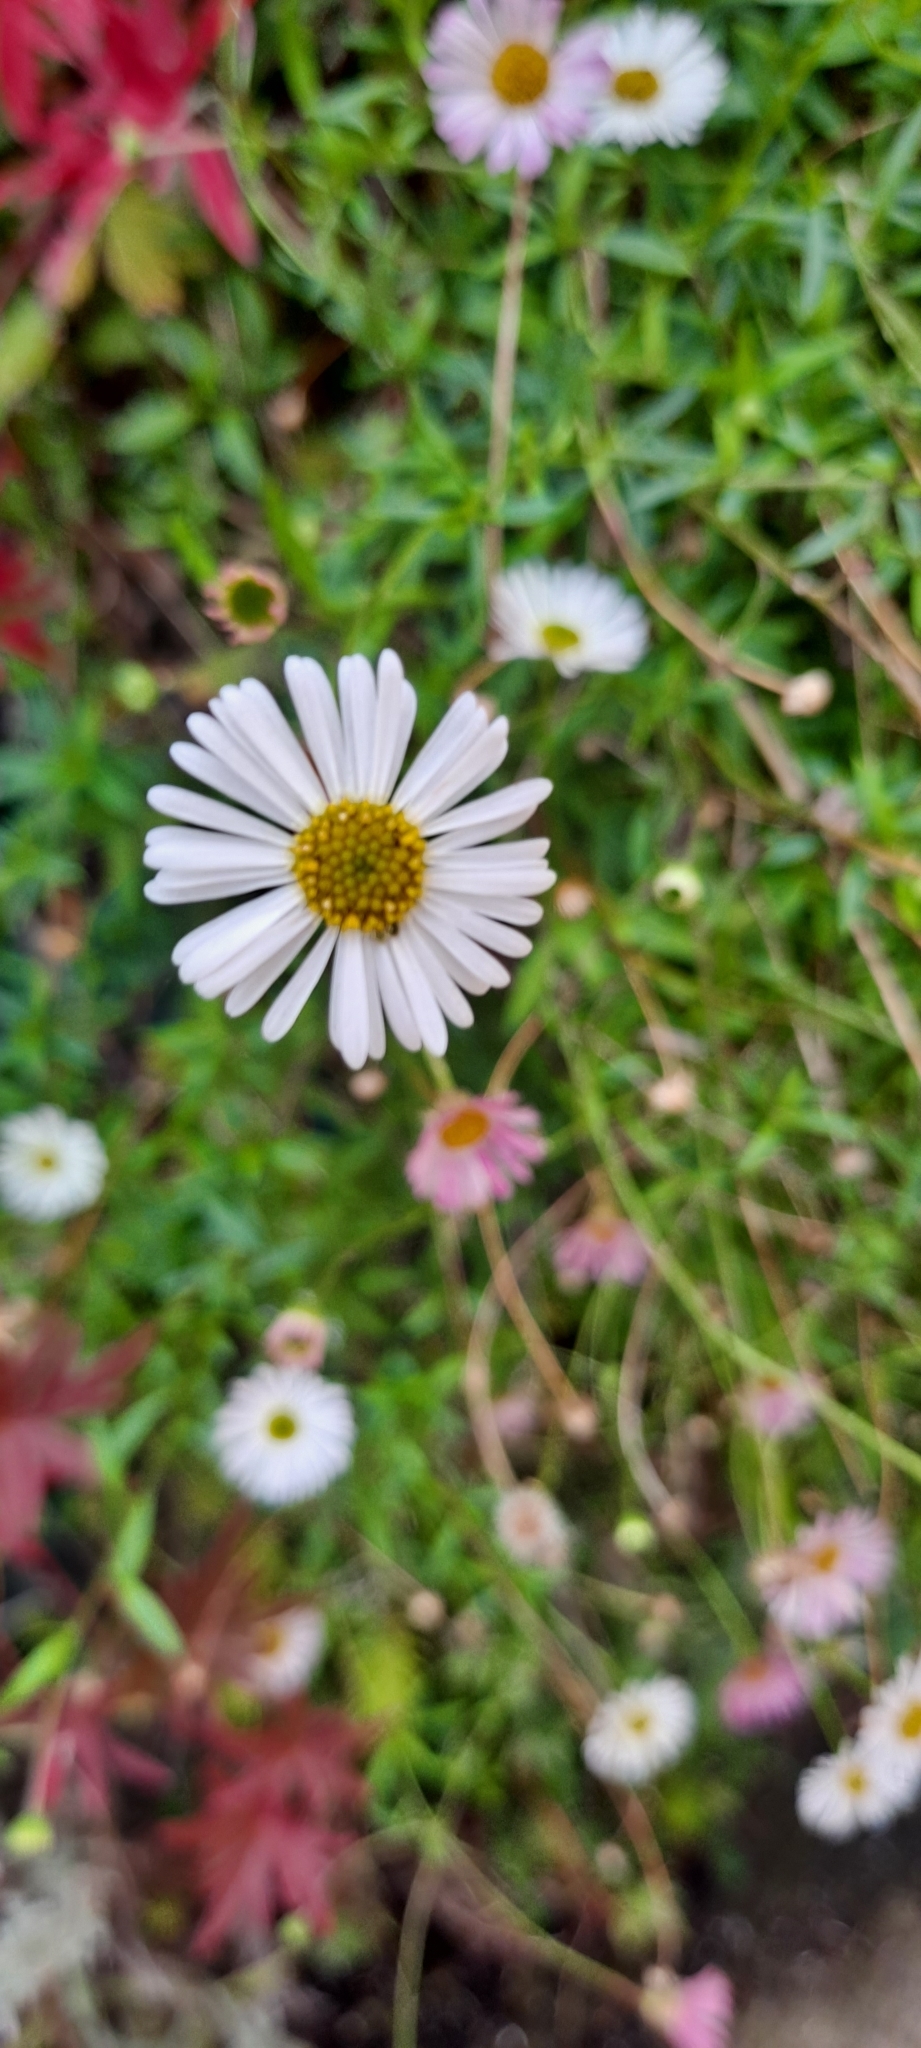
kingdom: Plantae
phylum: Tracheophyta
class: Magnoliopsida
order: Asterales
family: Asteraceae
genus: Erigeron
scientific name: Erigeron karvinskianus
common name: Mexican fleabane
